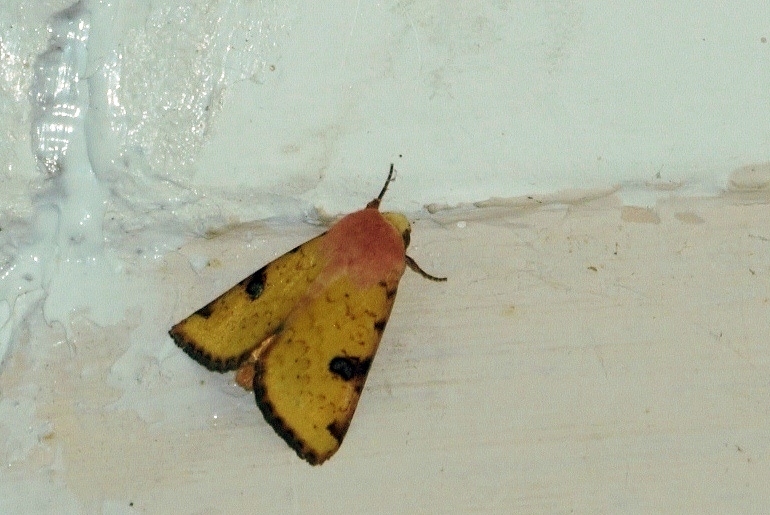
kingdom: Animalia
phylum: Arthropoda
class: Insecta
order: Lepidoptera
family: Noctuidae
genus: Heliothis
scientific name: Heliothis flavigera
